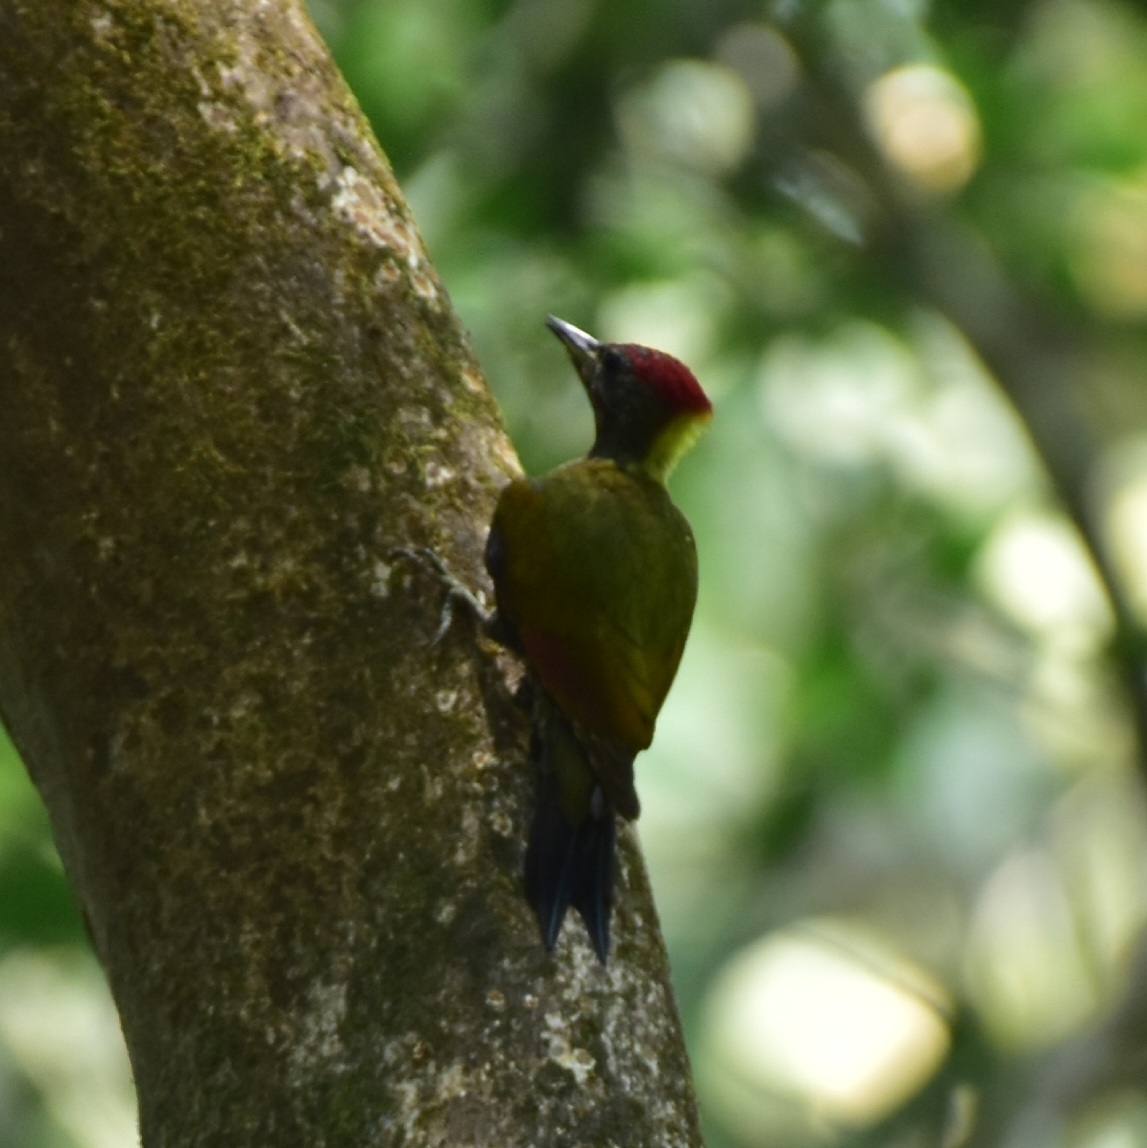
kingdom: Animalia
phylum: Chordata
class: Aves
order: Piciformes
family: Picidae
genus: Picus
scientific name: Picus chlorolophus
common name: Lesser yellownape
